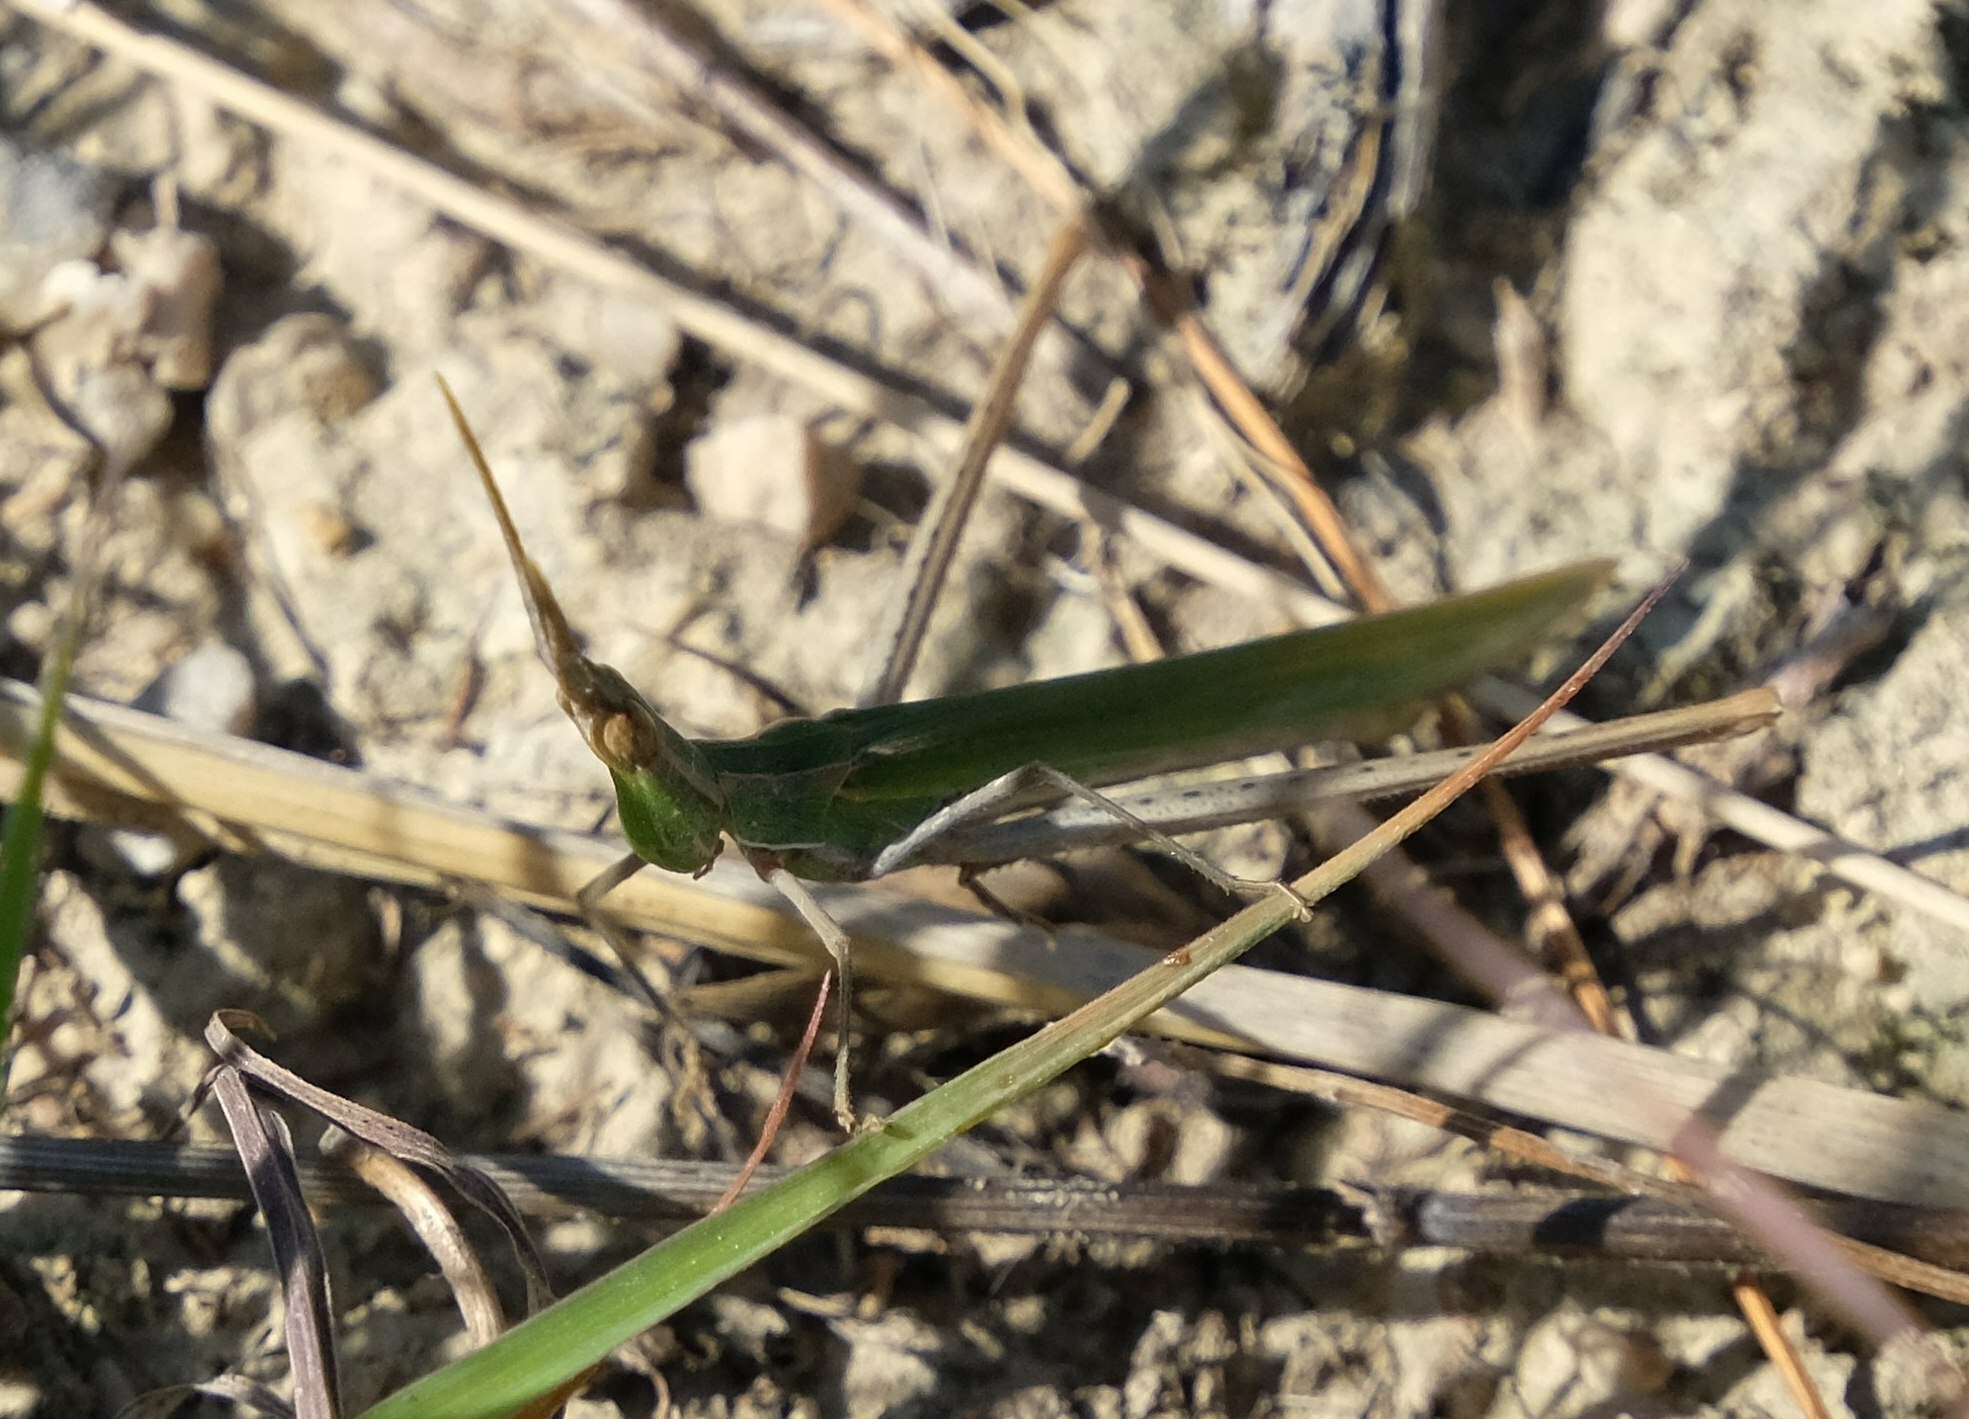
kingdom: Animalia
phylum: Arthropoda
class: Insecta
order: Orthoptera
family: Acrididae
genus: Acrida
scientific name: Acrida ungarica
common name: Common cone-headed grasshopper
